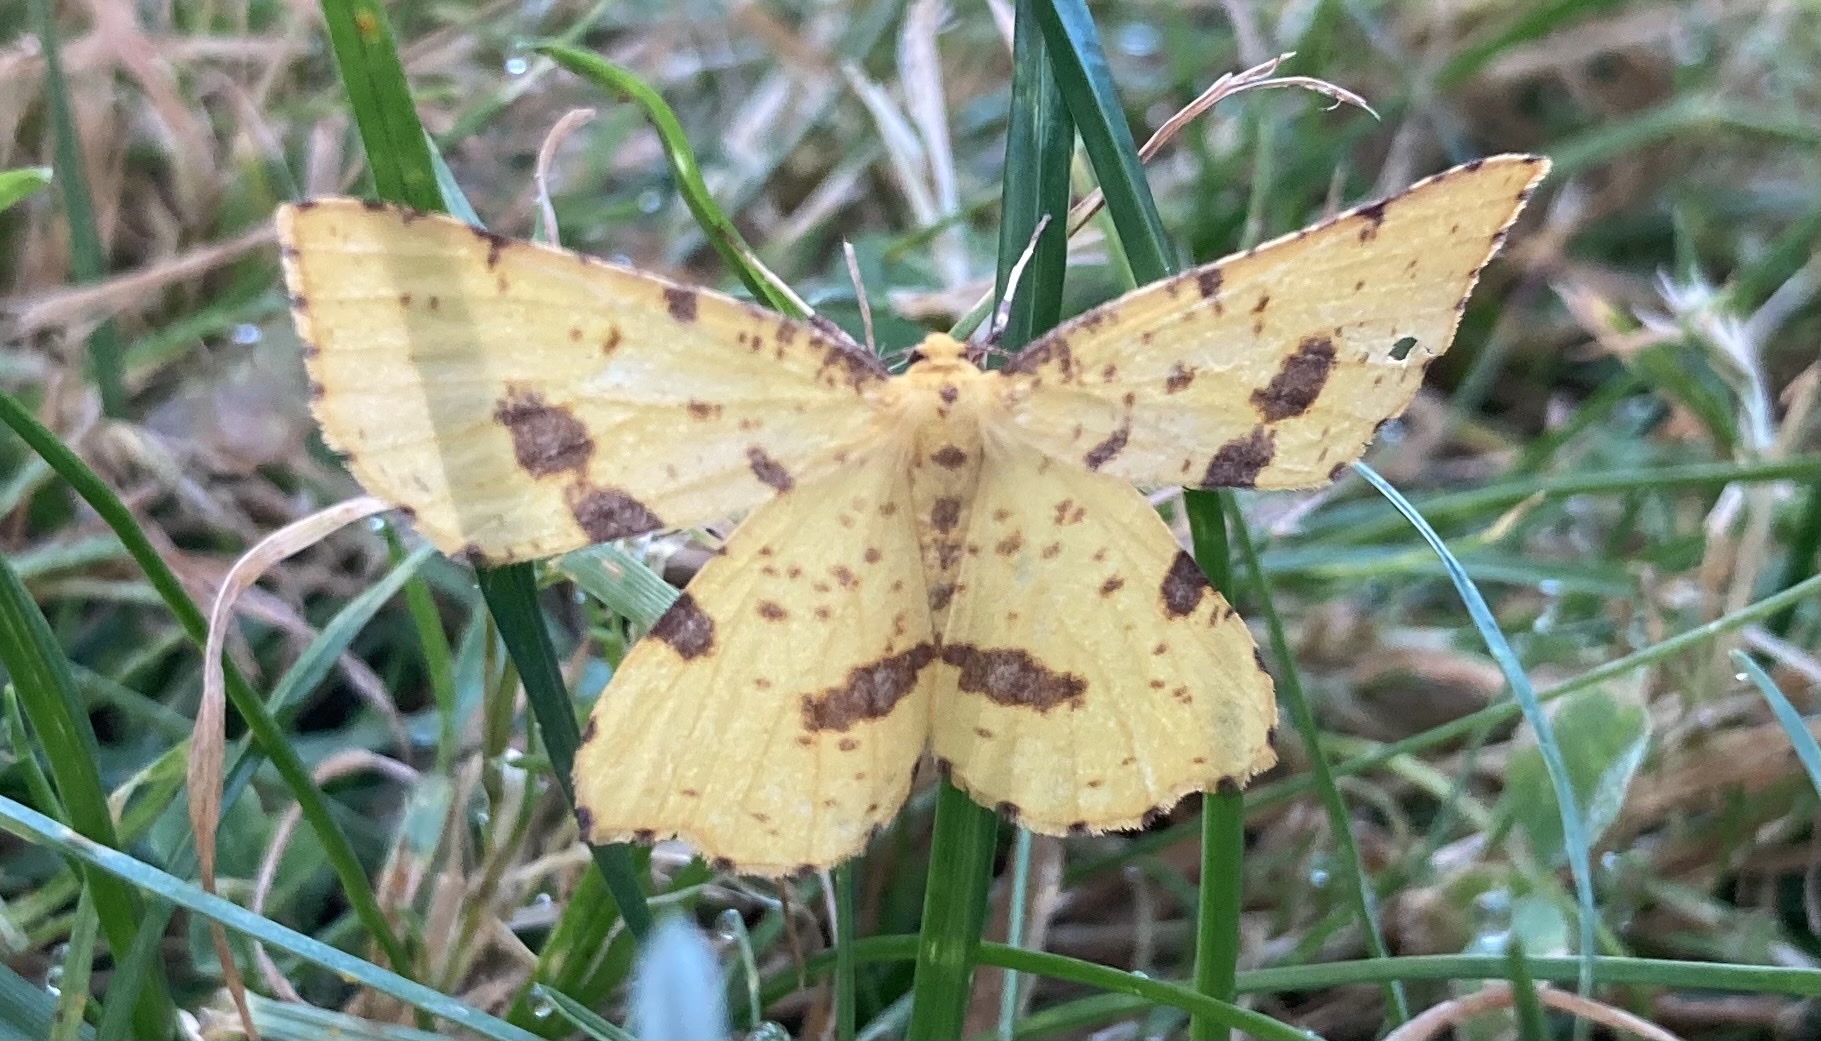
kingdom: Animalia
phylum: Arthropoda
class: Insecta
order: Lepidoptera
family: Geometridae
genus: Xanthotype
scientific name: Xanthotype
